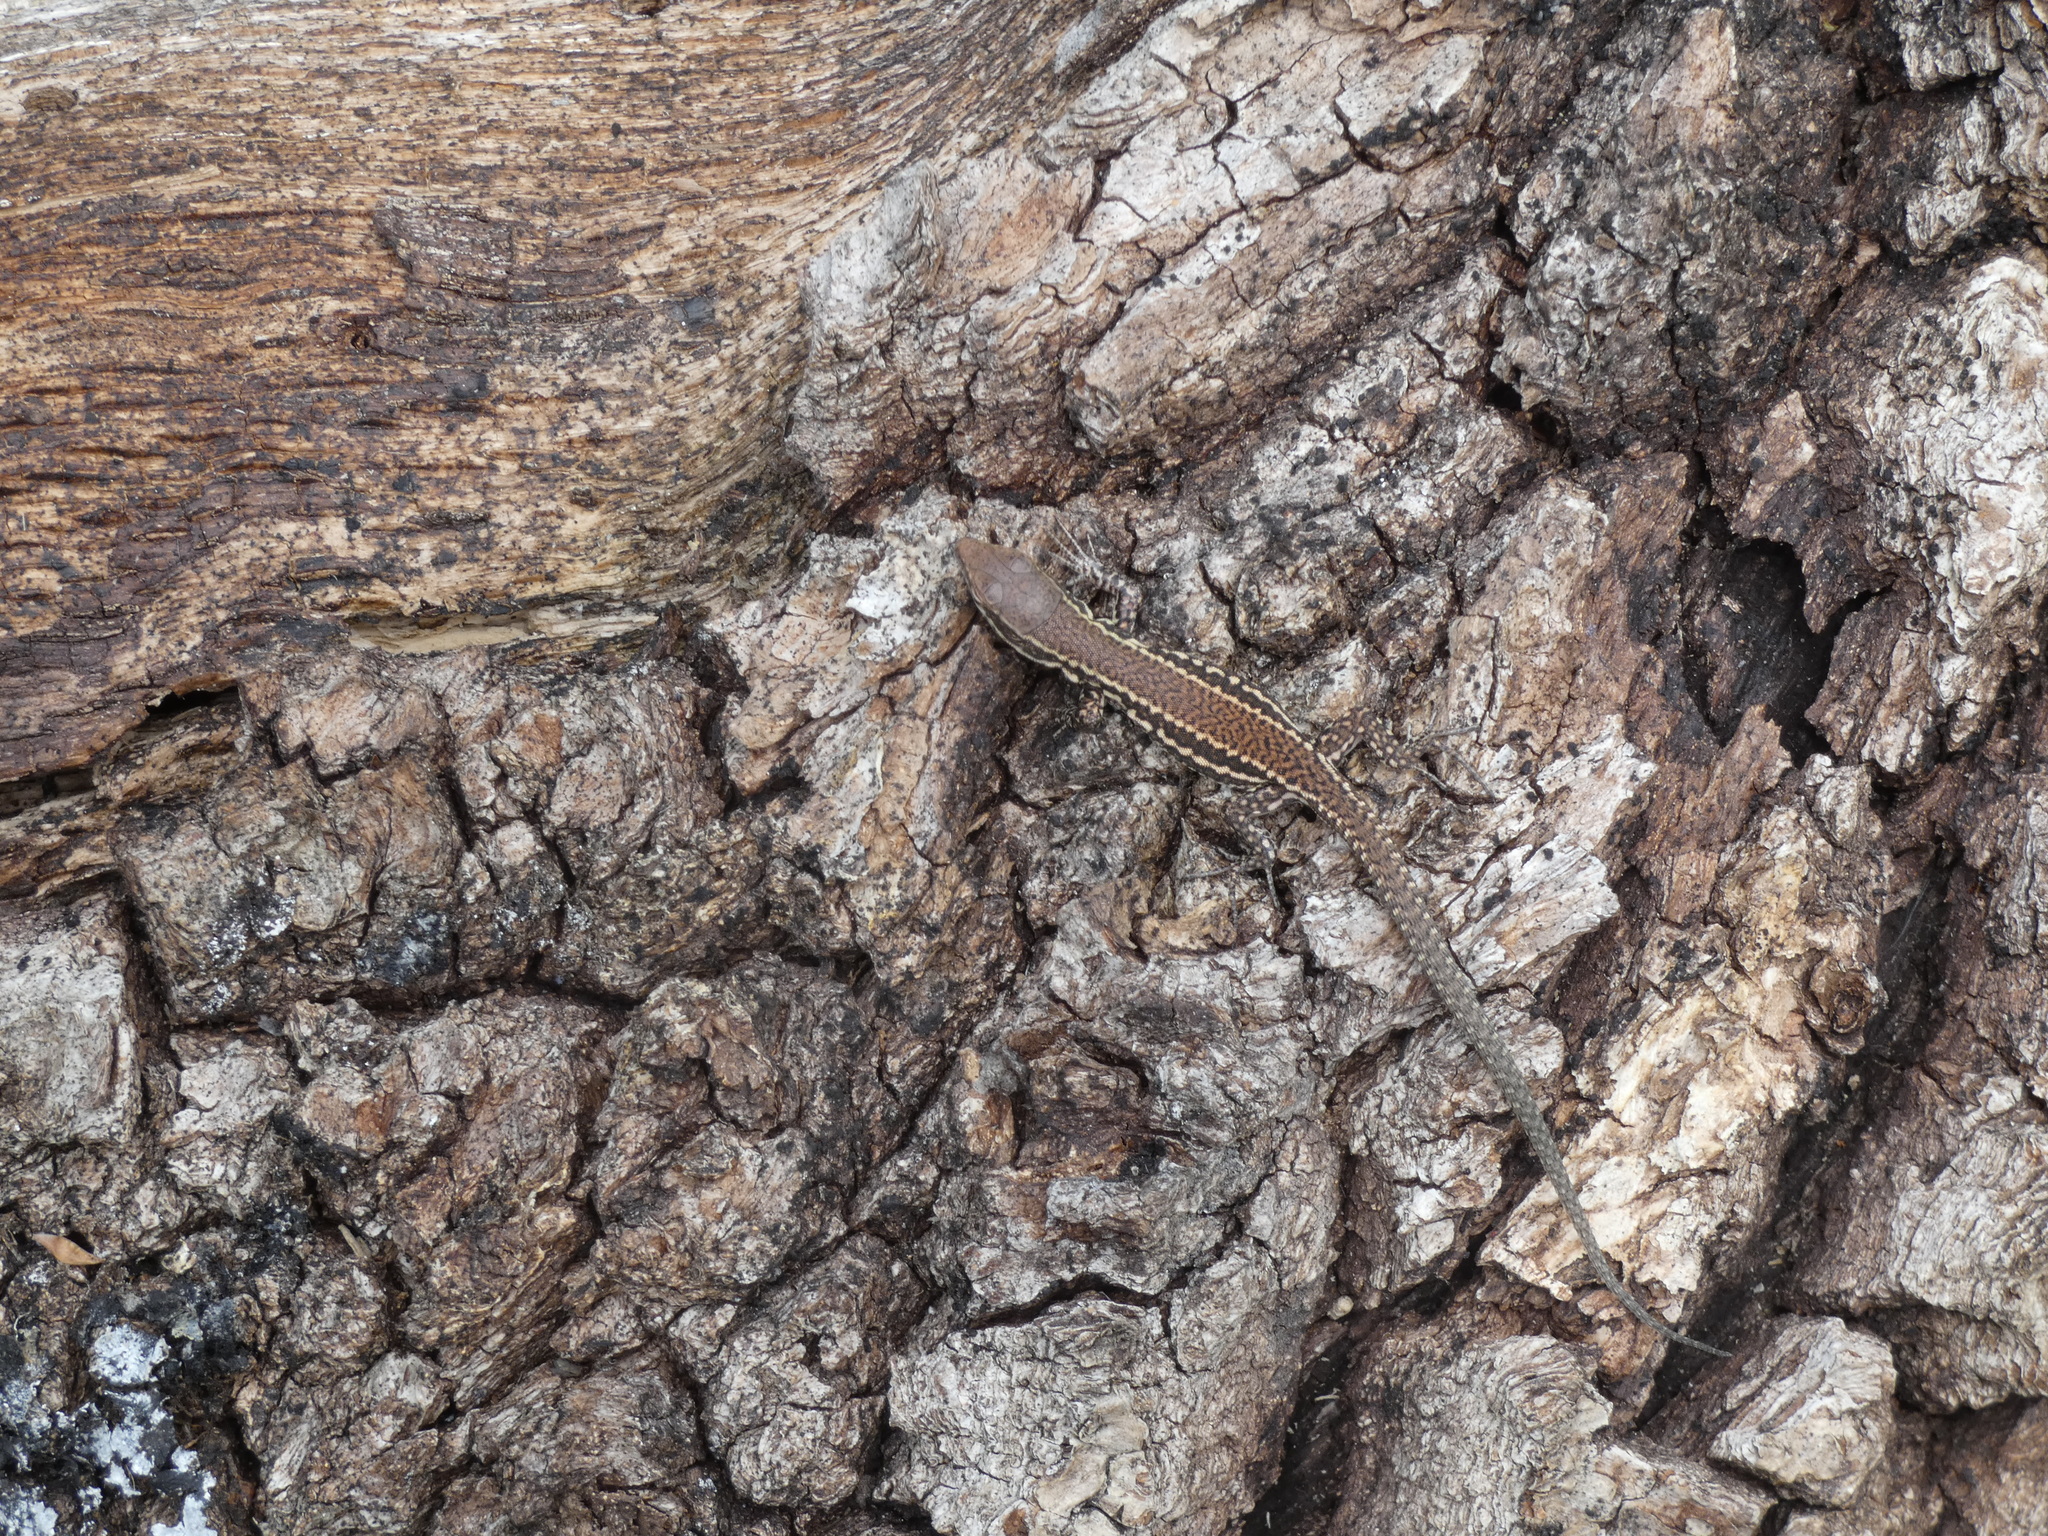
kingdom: Animalia
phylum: Chordata
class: Squamata
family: Lacertidae
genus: Podarcis
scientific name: Podarcis muralis
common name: Common wall lizard
